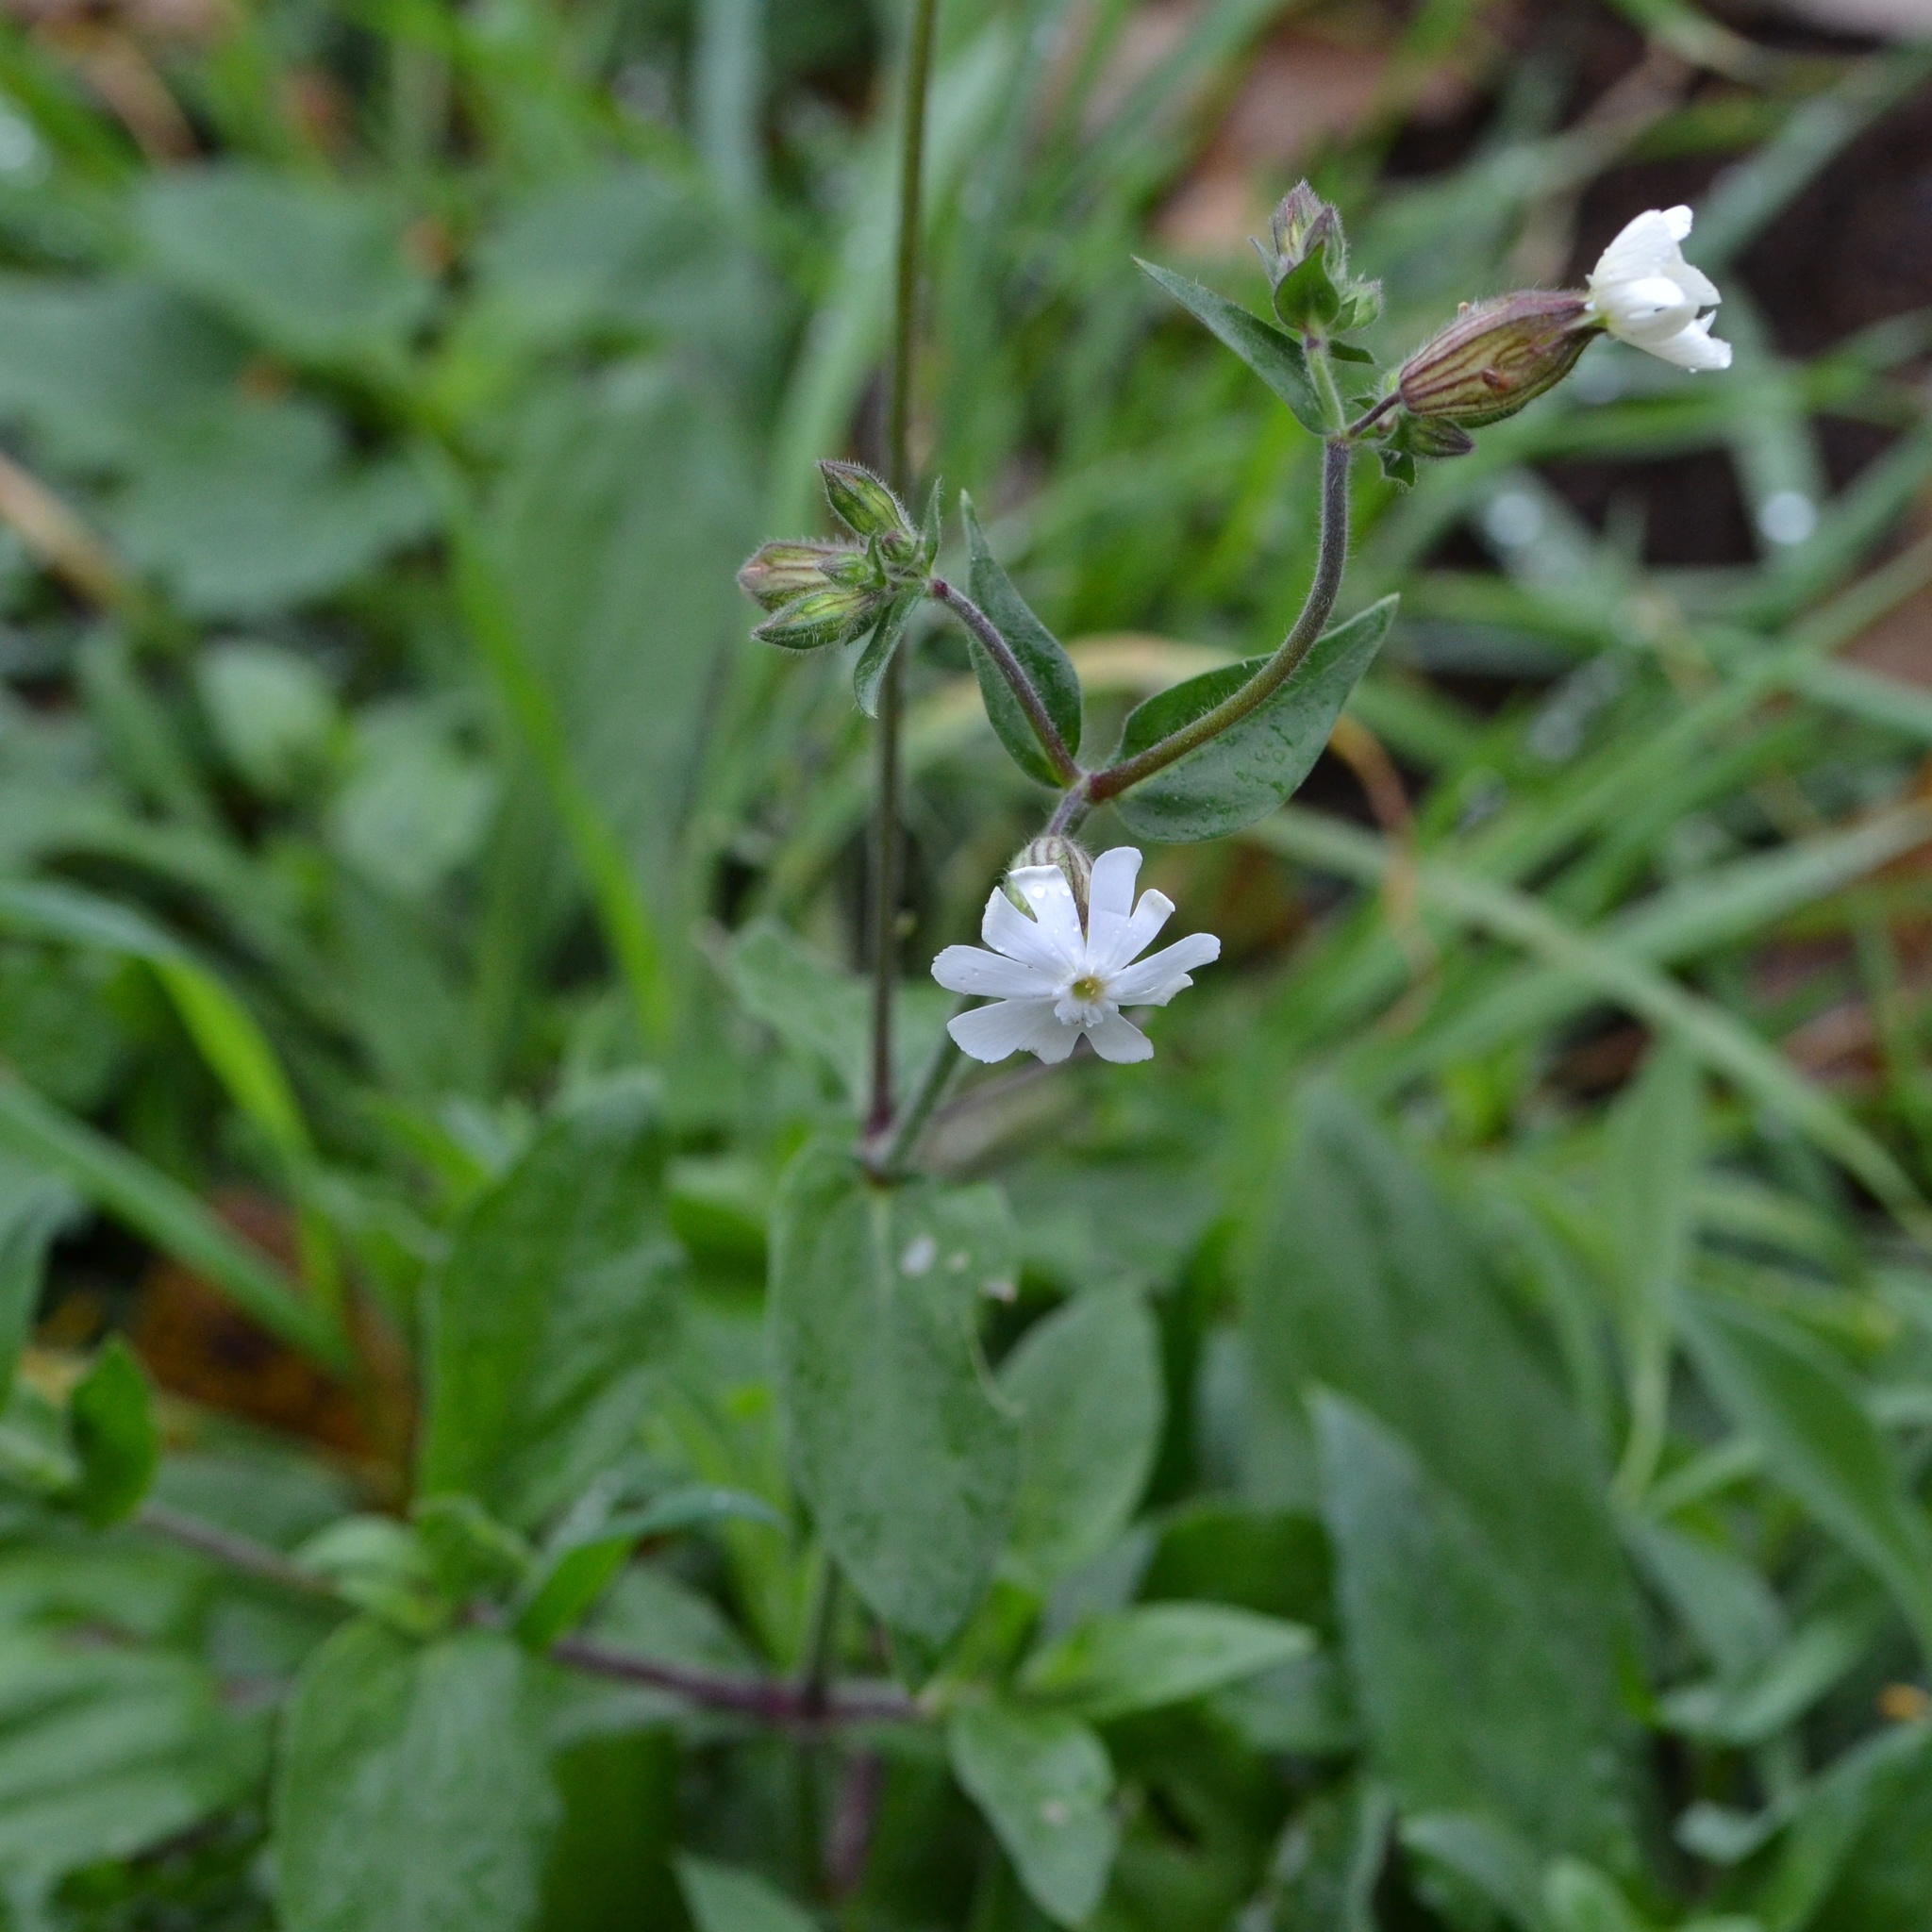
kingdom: Plantae
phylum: Tracheophyta
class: Magnoliopsida
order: Caryophyllales
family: Caryophyllaceae
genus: Silene
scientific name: Silene latifolia
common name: White campion
